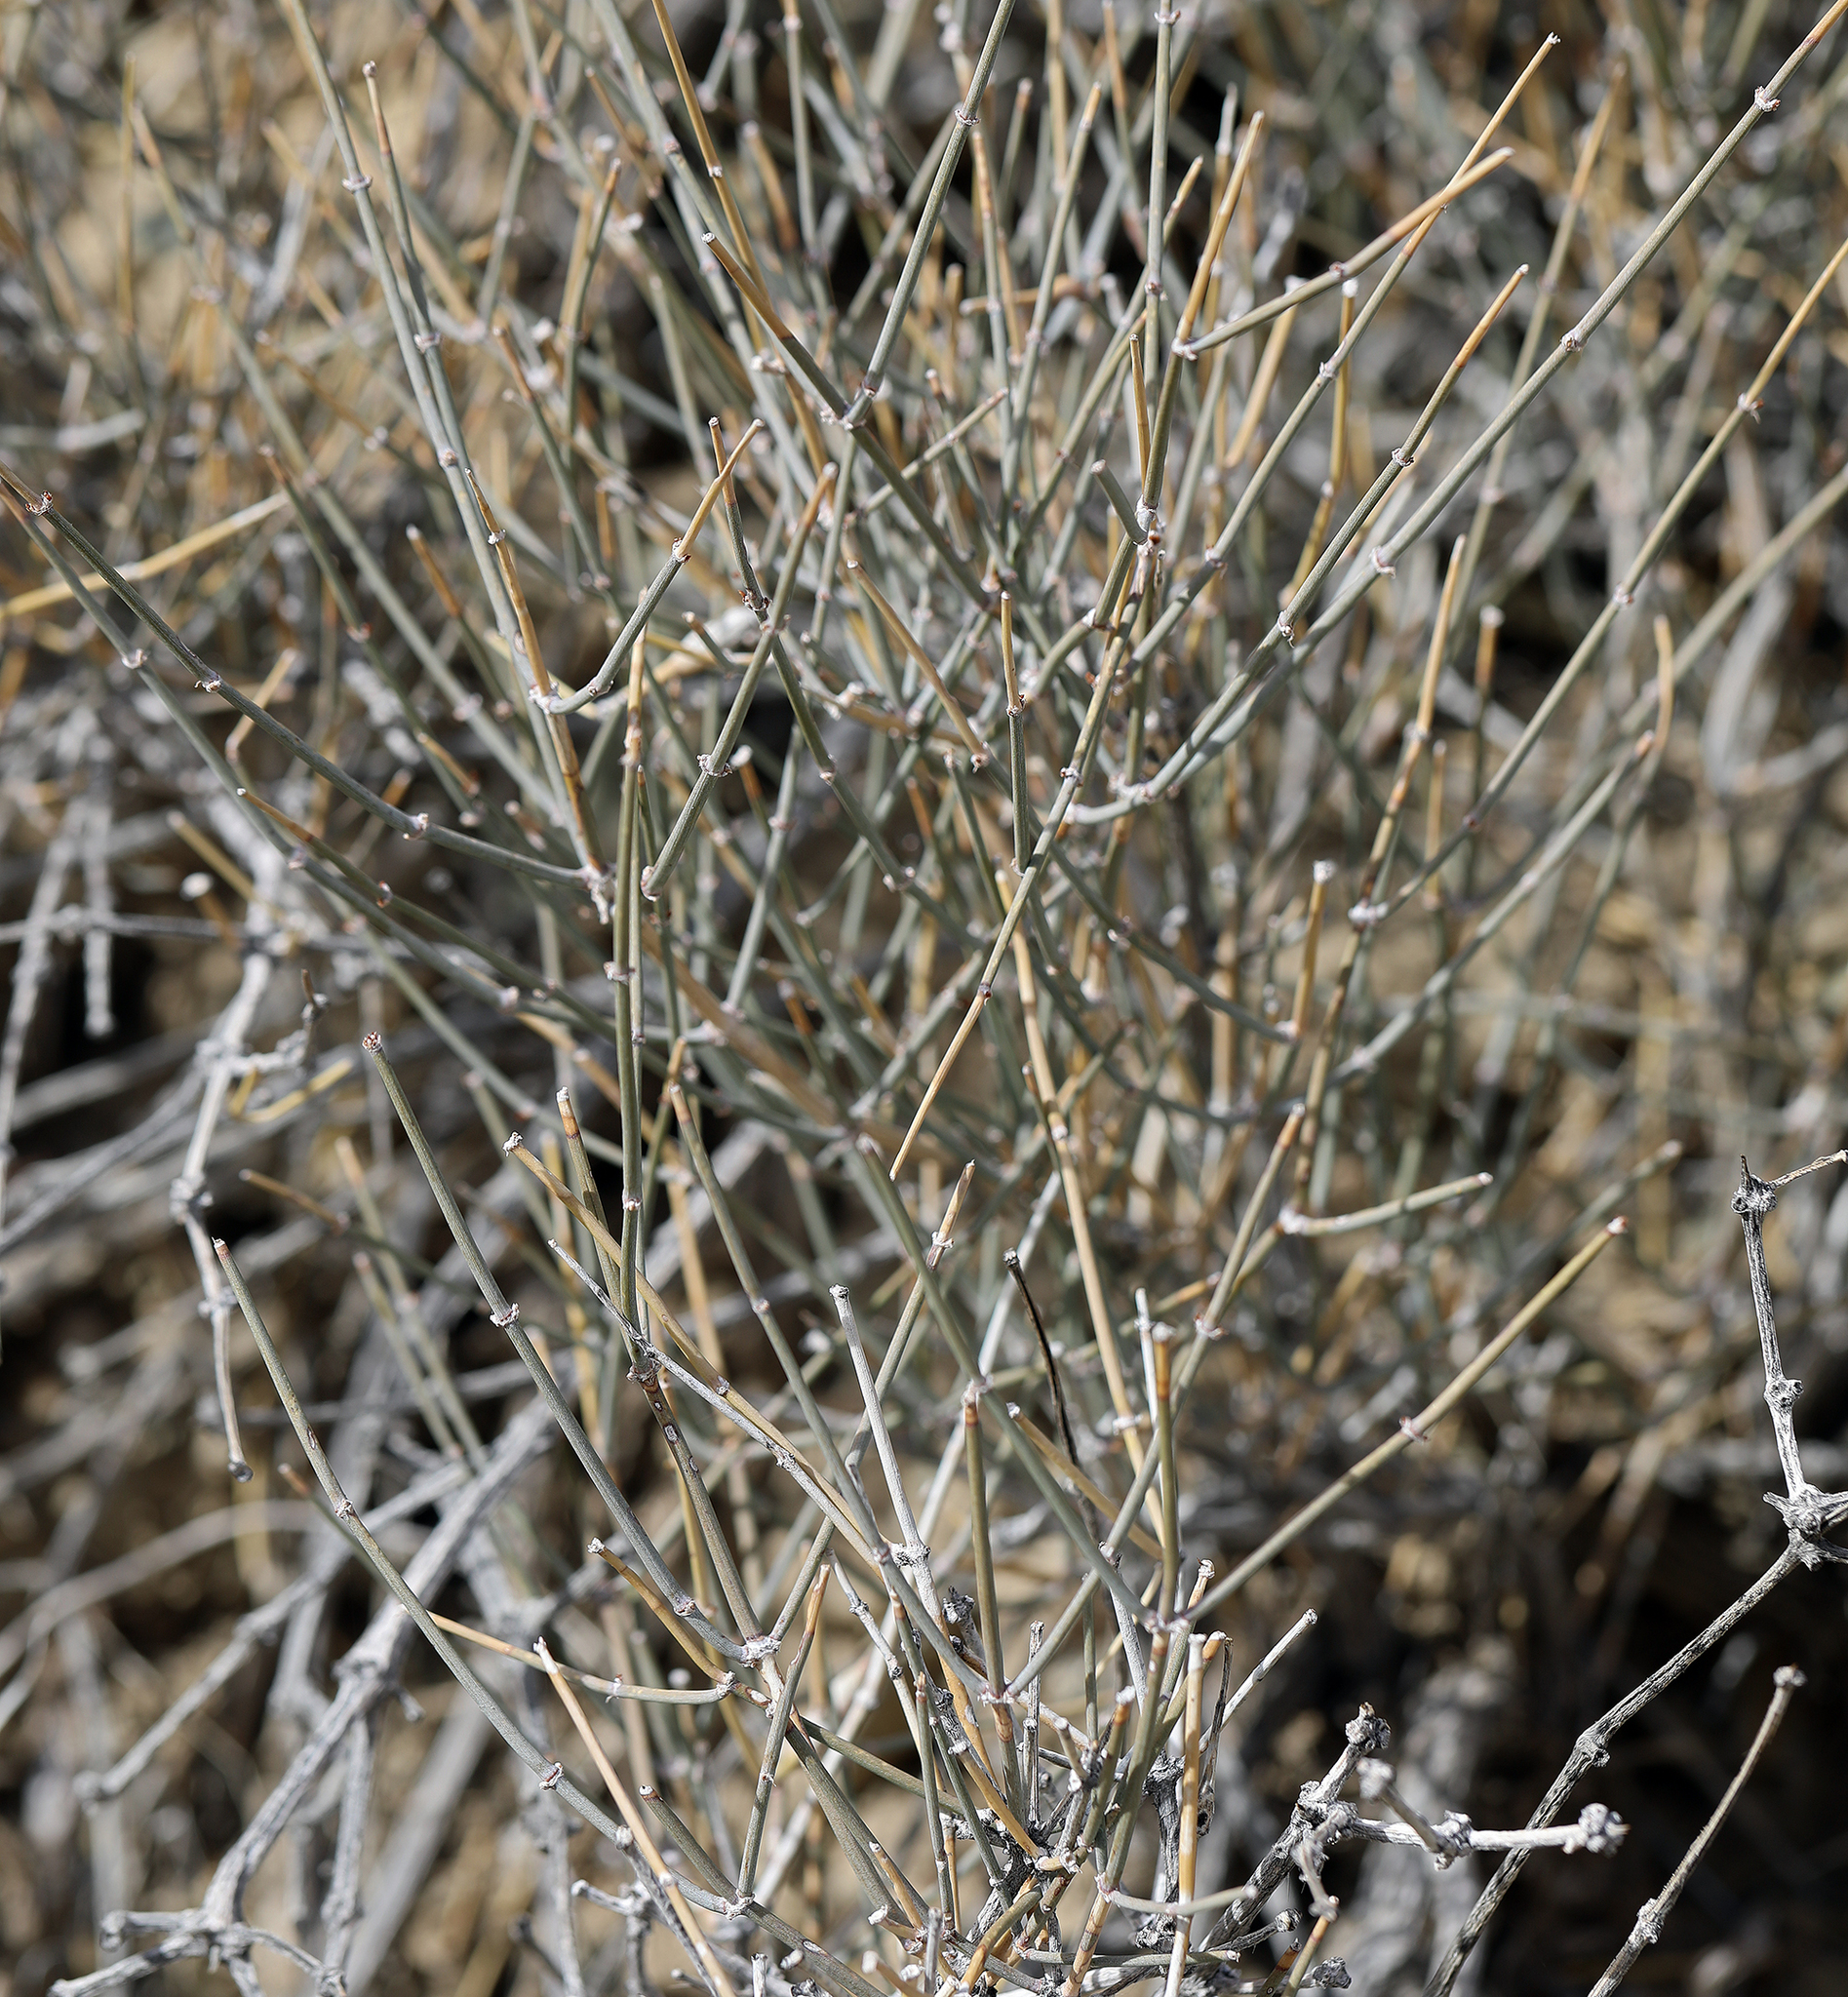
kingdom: Plantae
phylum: Tracheophyta
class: Gnetopsida
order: Ephedrales
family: Ephedraceae
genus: Ephedra
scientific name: Ephedra nevadensis
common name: Gray ephedra
